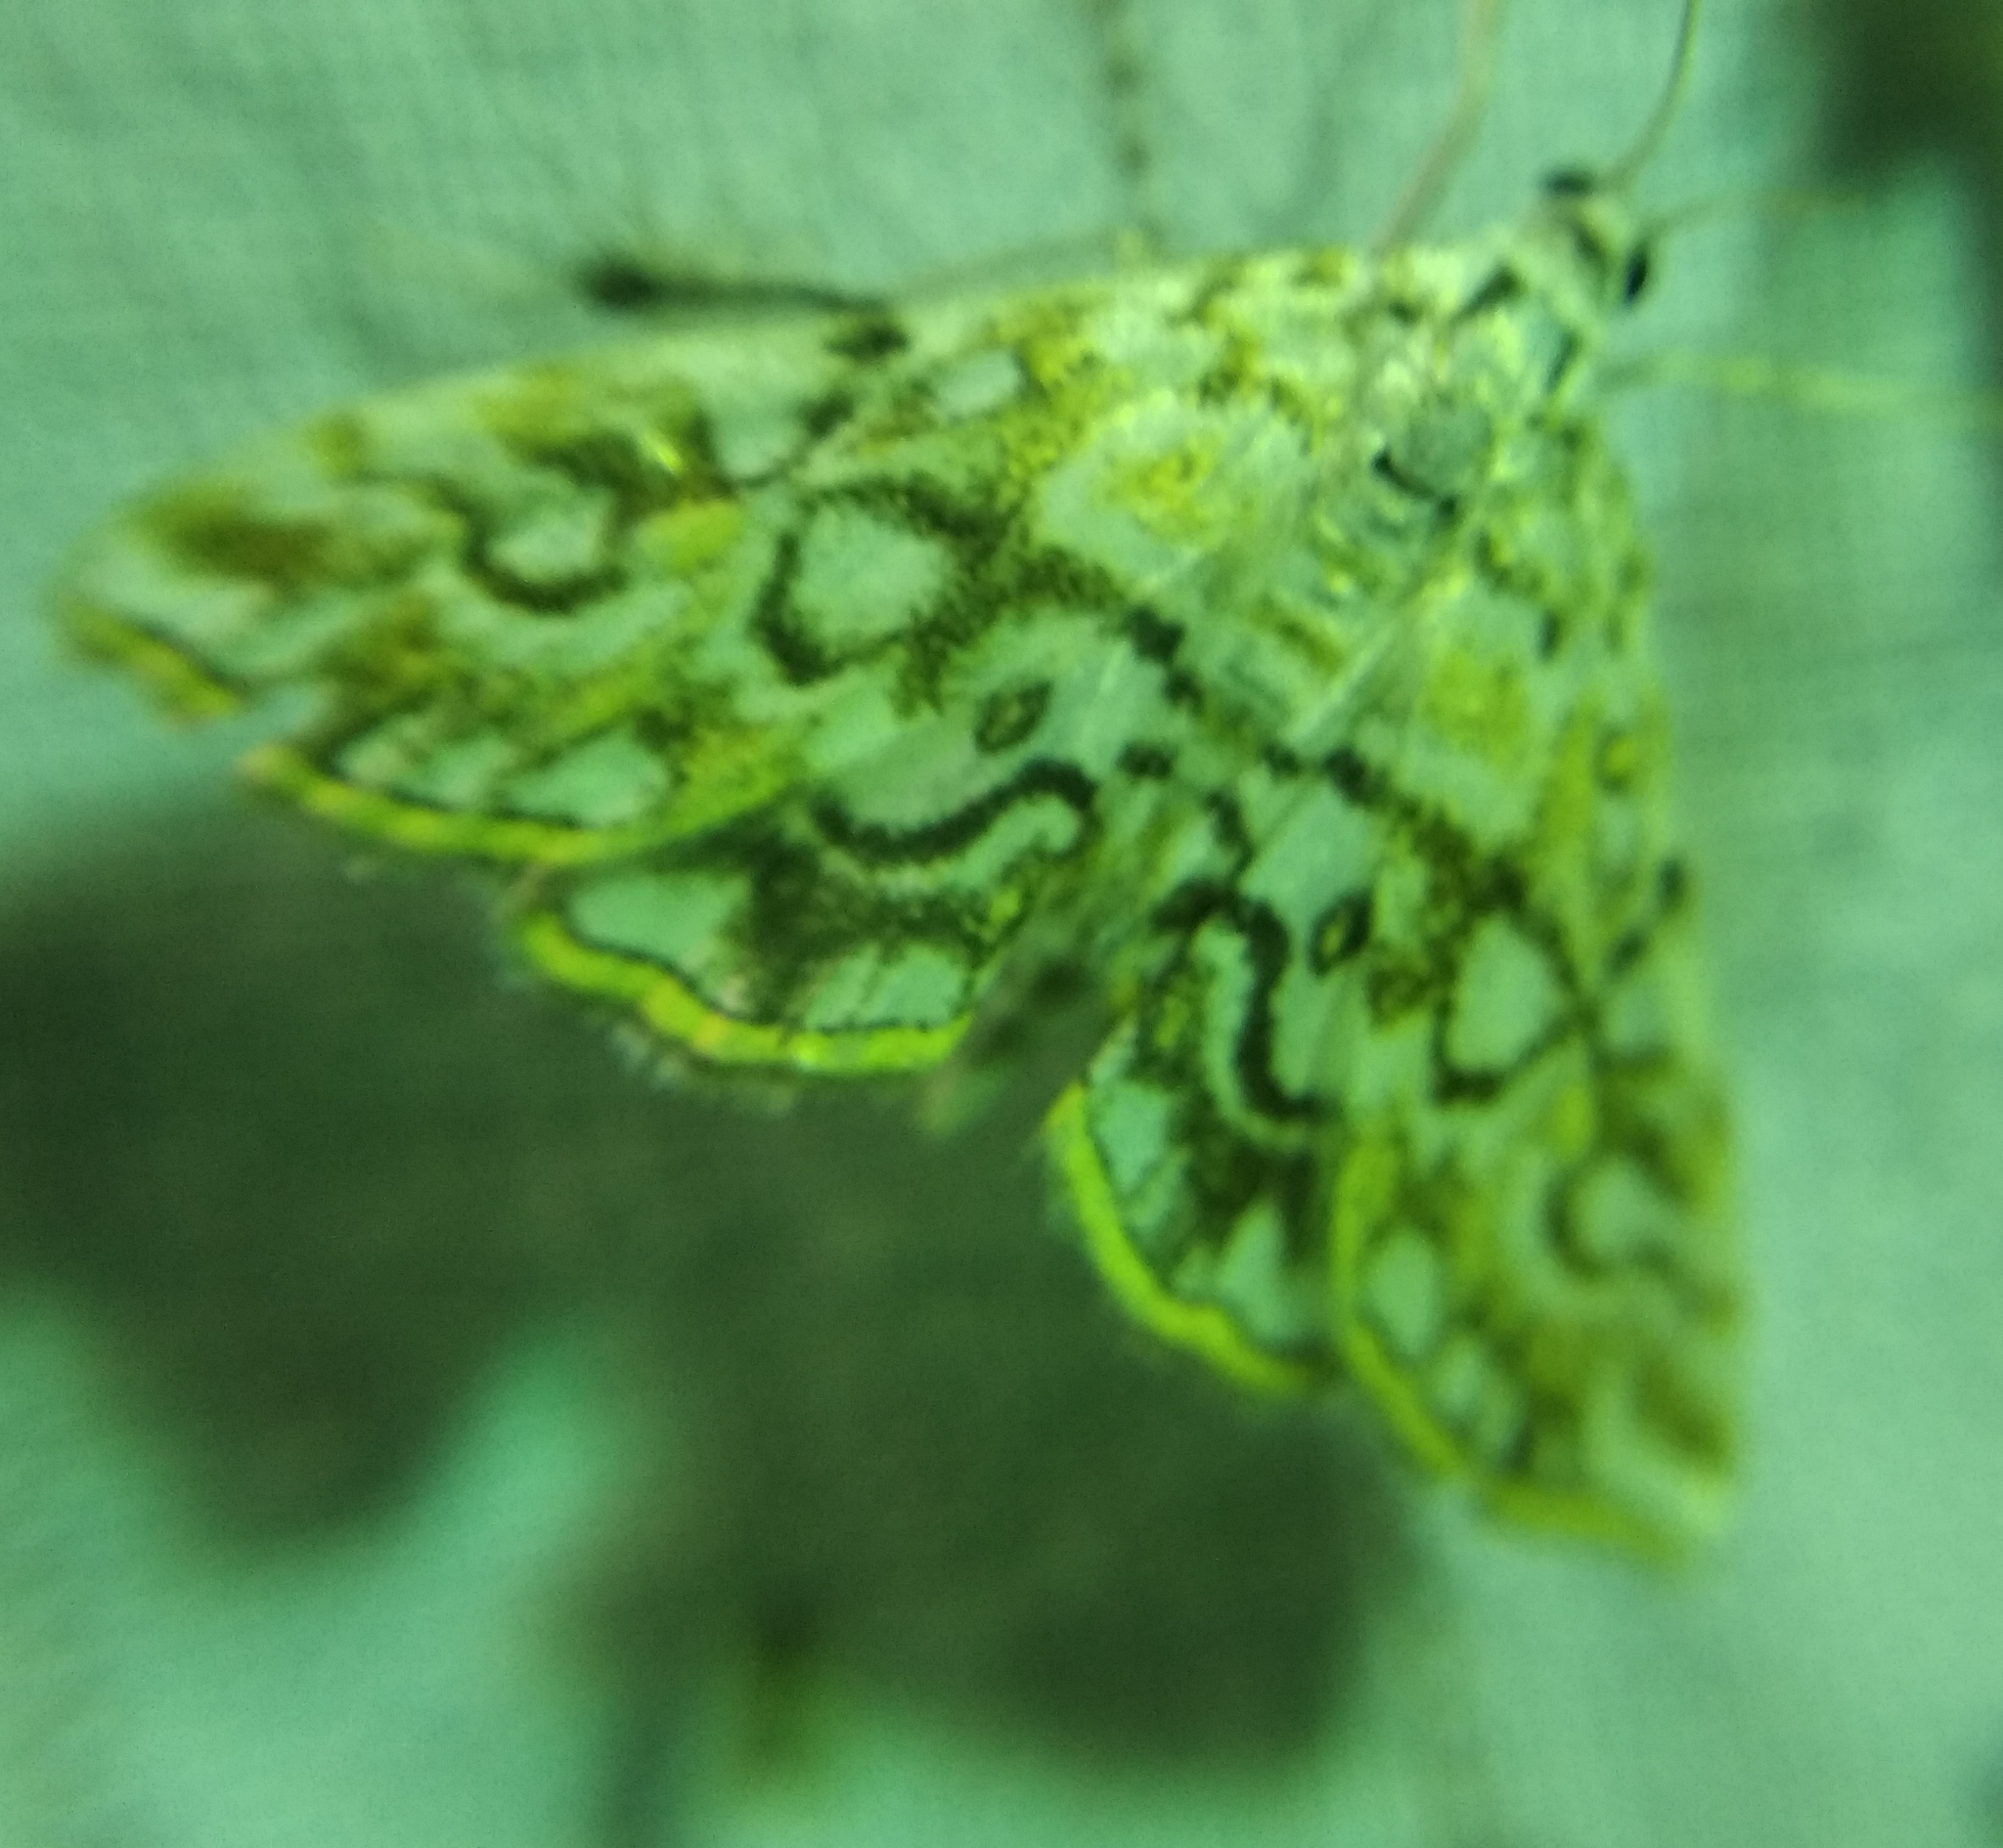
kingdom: Animalia
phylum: Arthropoda
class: Insecta
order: Lepidoptera
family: Crambidae
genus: Elophila
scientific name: Elophila nymphaeata
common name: Brown china-mark
